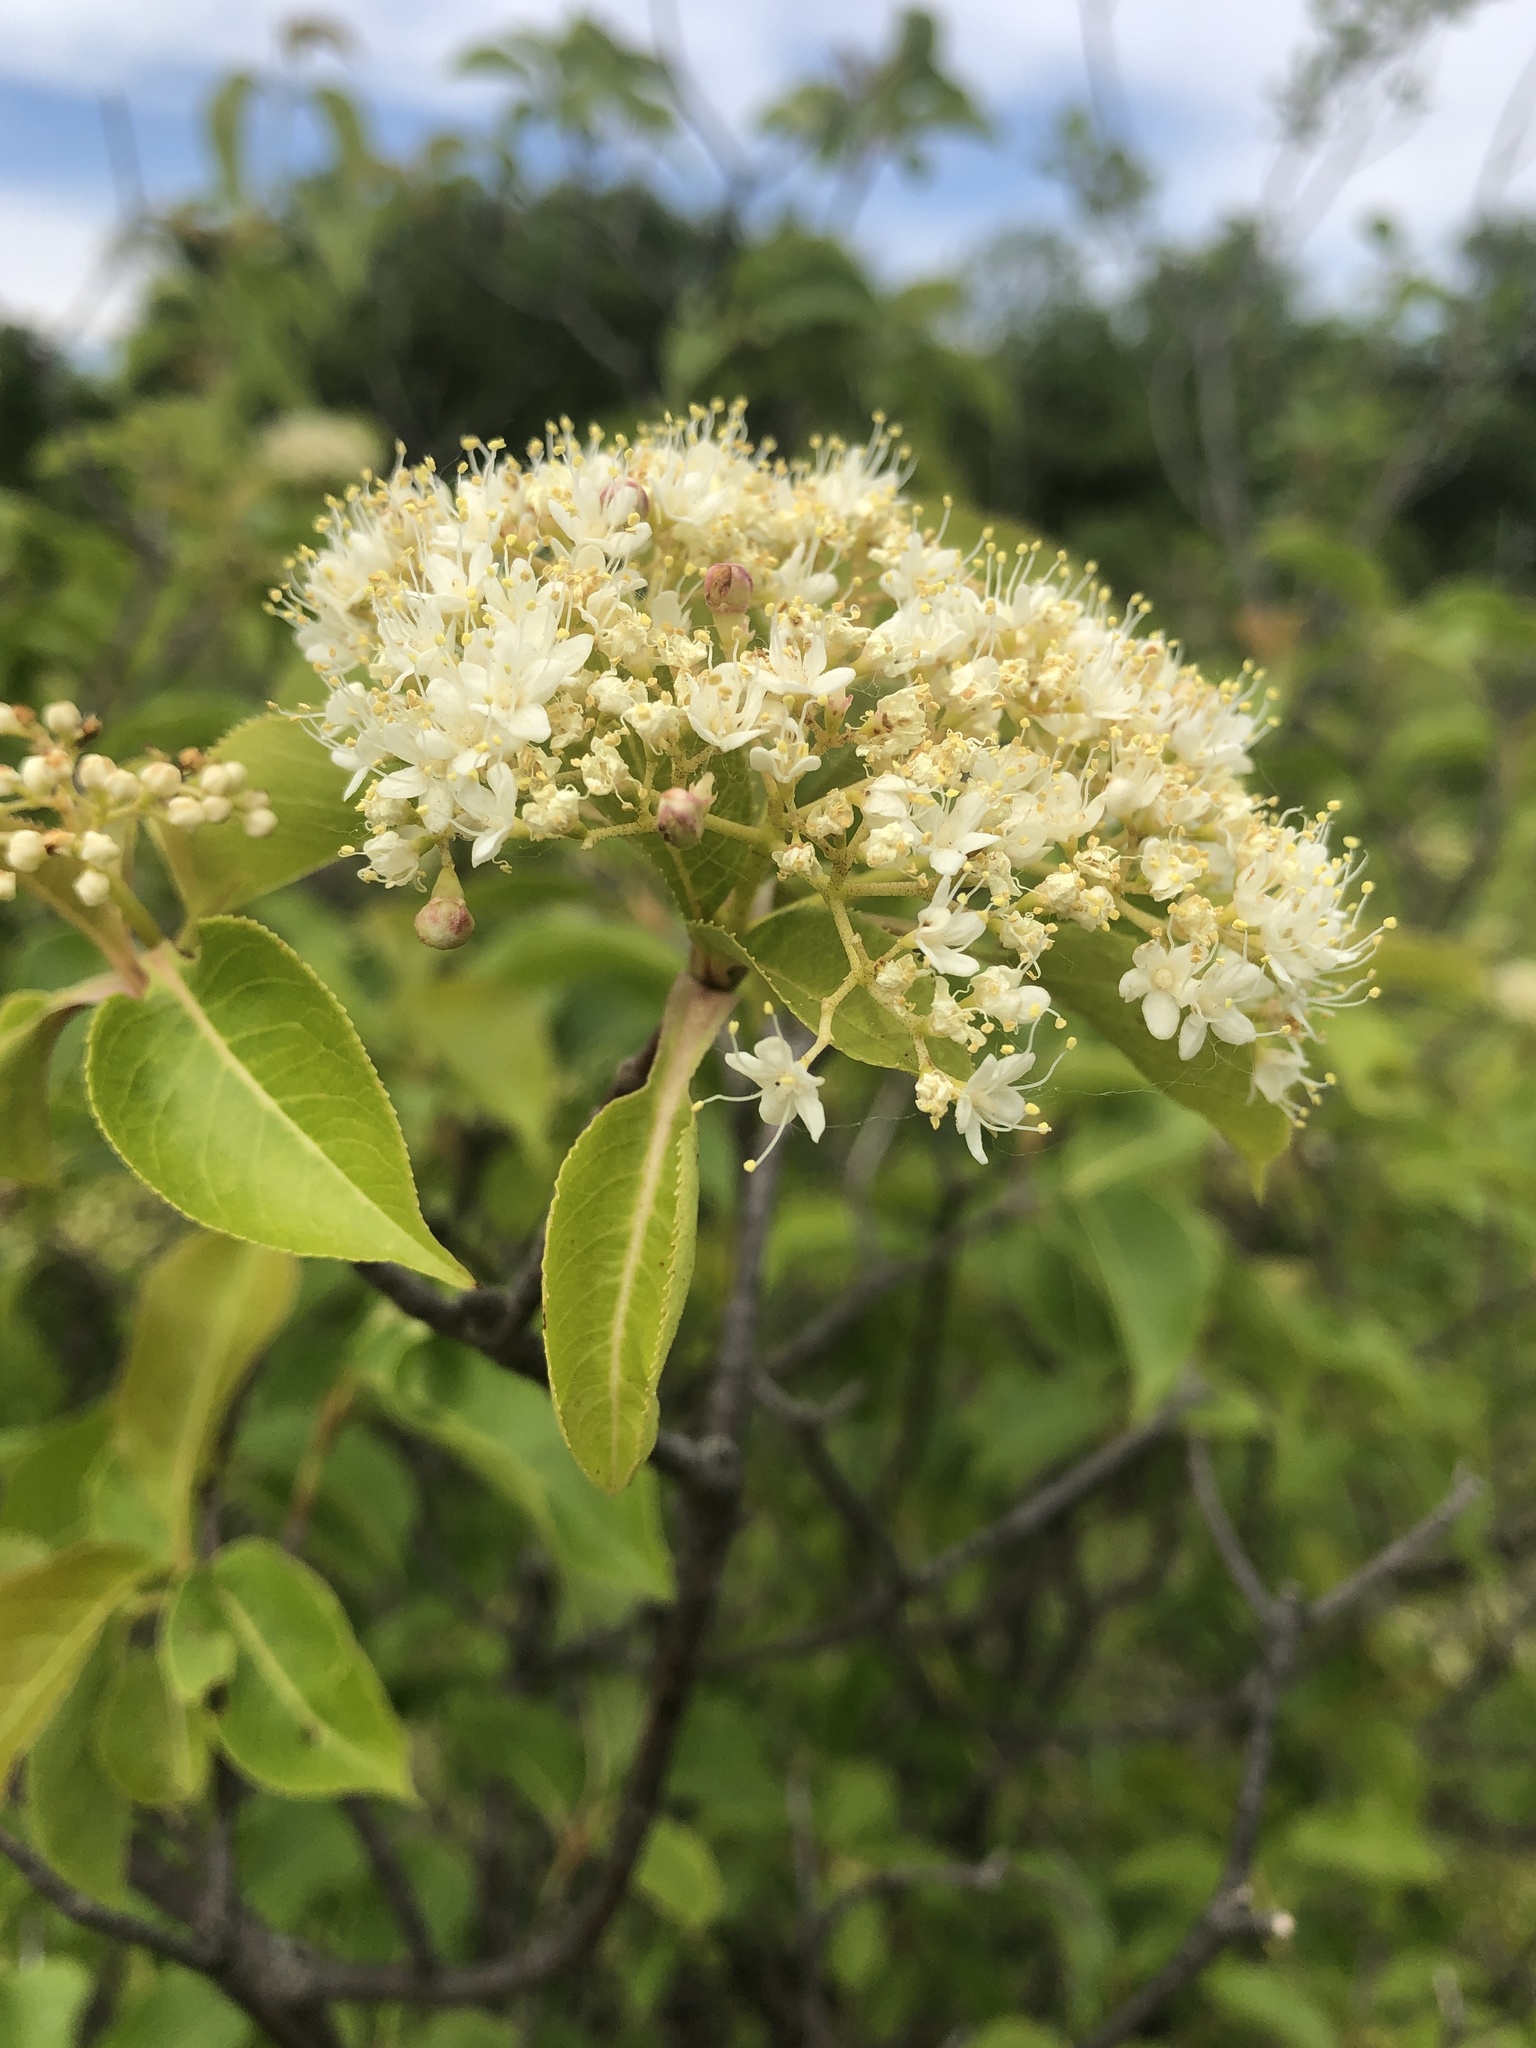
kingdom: Plantae
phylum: Tracheophyta
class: Magnoliopsida
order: Dipsacales
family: Viburnaceae
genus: Viburnum
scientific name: Viburnum lentago
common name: Black haw
